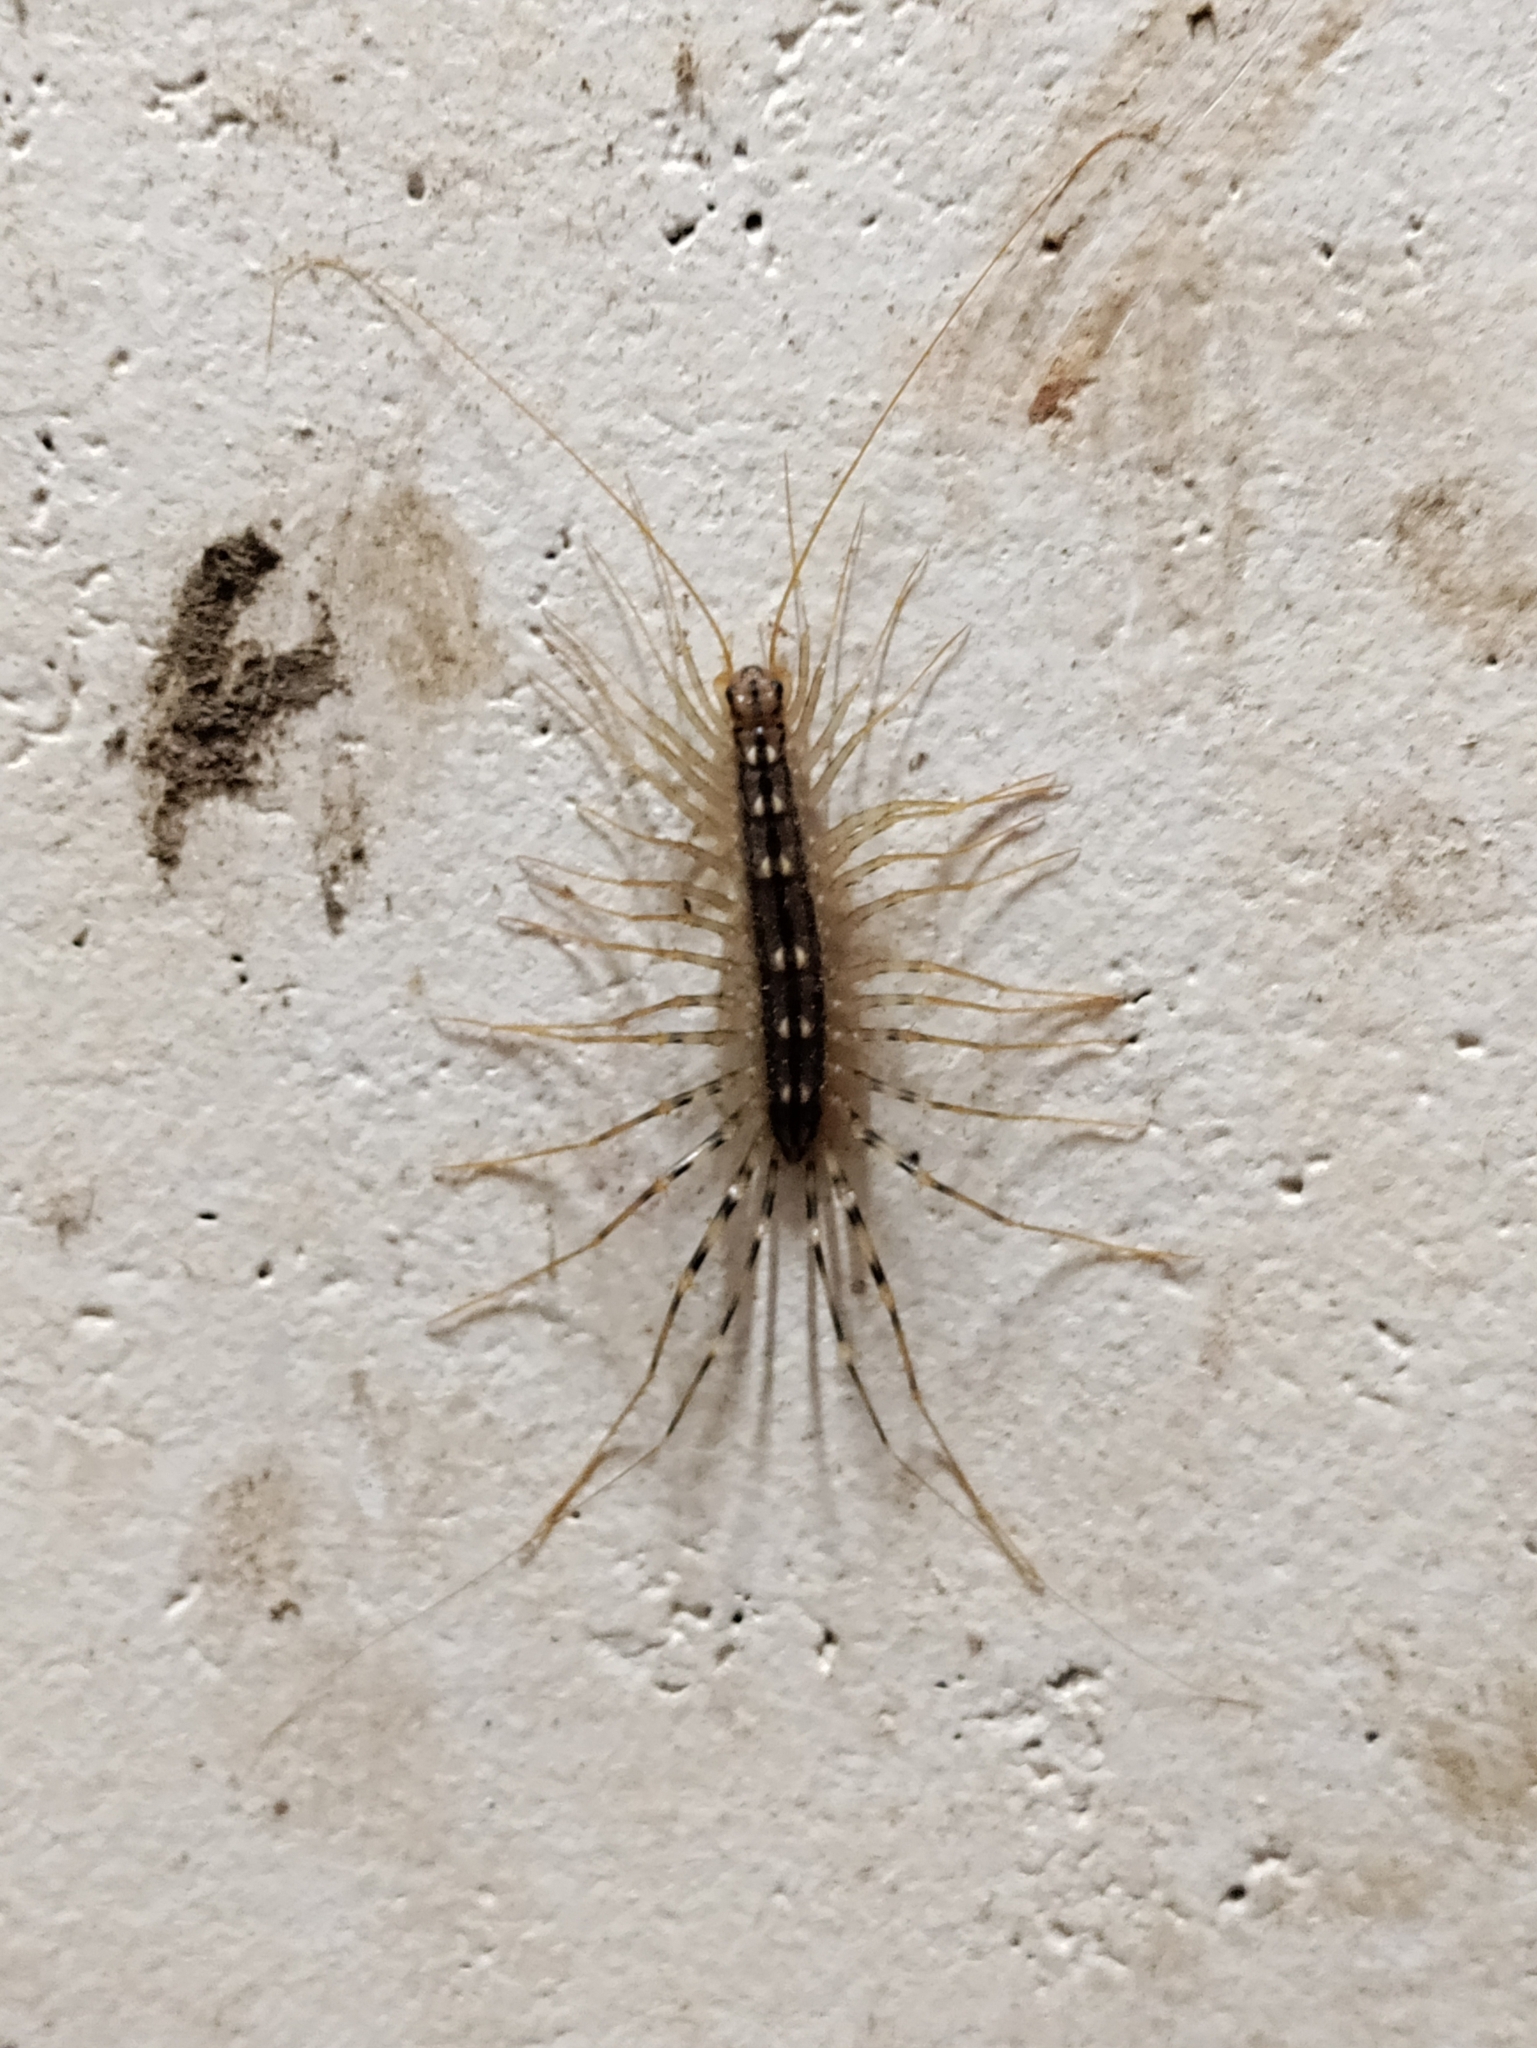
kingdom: Animalia
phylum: Arthropoda
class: Chilopoda
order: Scutigeromorpha
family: Scutigeridae
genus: Scutigera
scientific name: Scutigera coleoptrata
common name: House centipede
